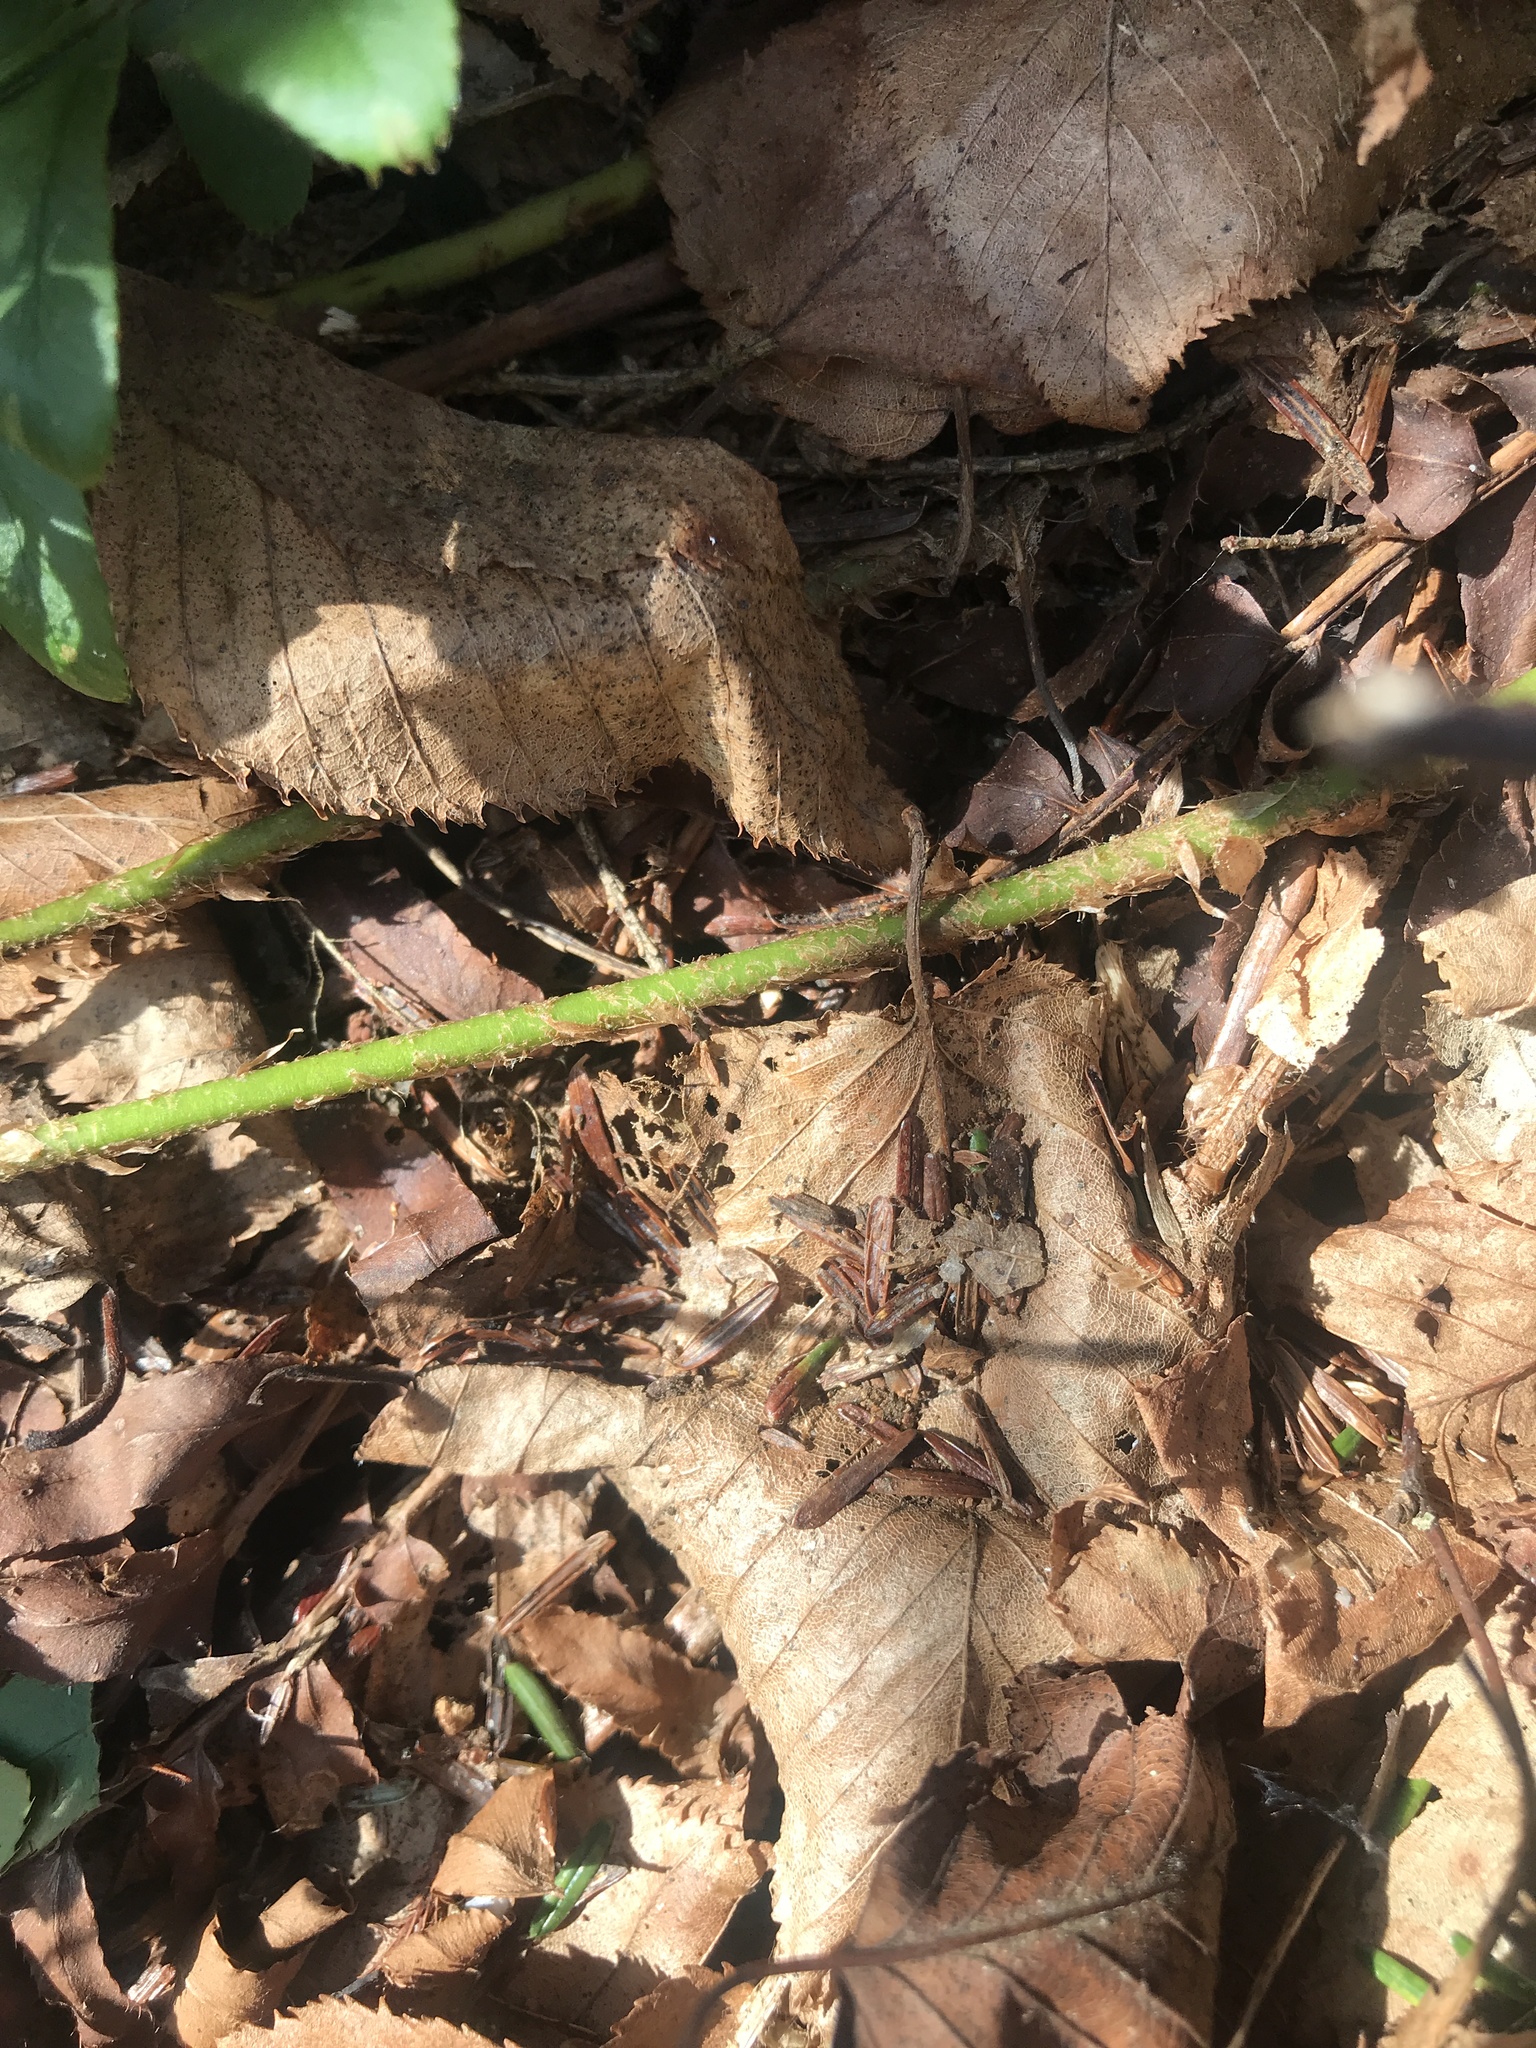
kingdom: Plantae
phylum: Tracheophyta
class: Polypodiopsida
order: Polypodiales
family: Dryopteridaceae
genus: Polystichum
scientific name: Polystichum acrostichoides
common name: Christmas fern
